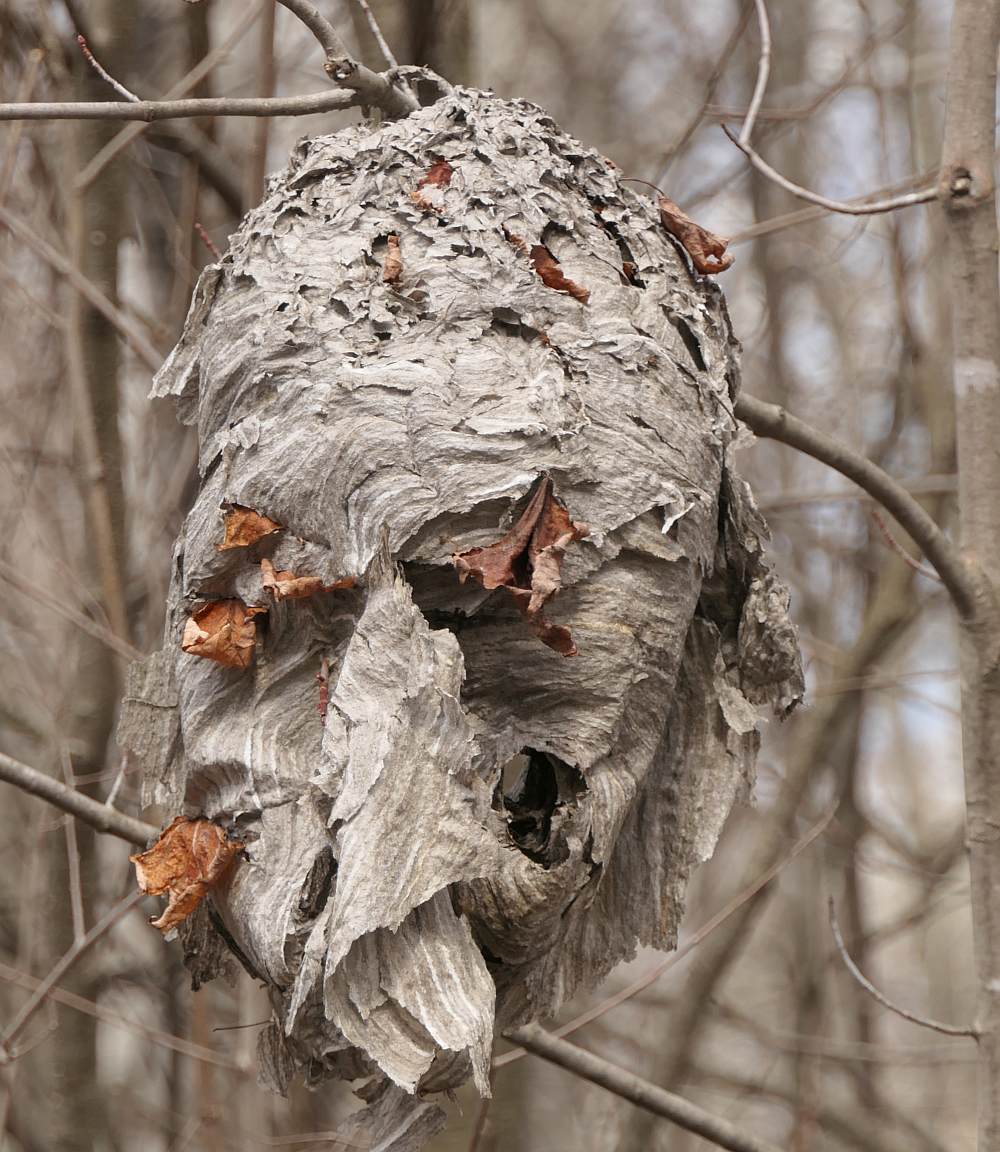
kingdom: Animalia
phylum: Arthropoda
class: Insecta
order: Hymenoptera
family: Vespidae
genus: Dolichovespula
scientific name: Dolichovespula
